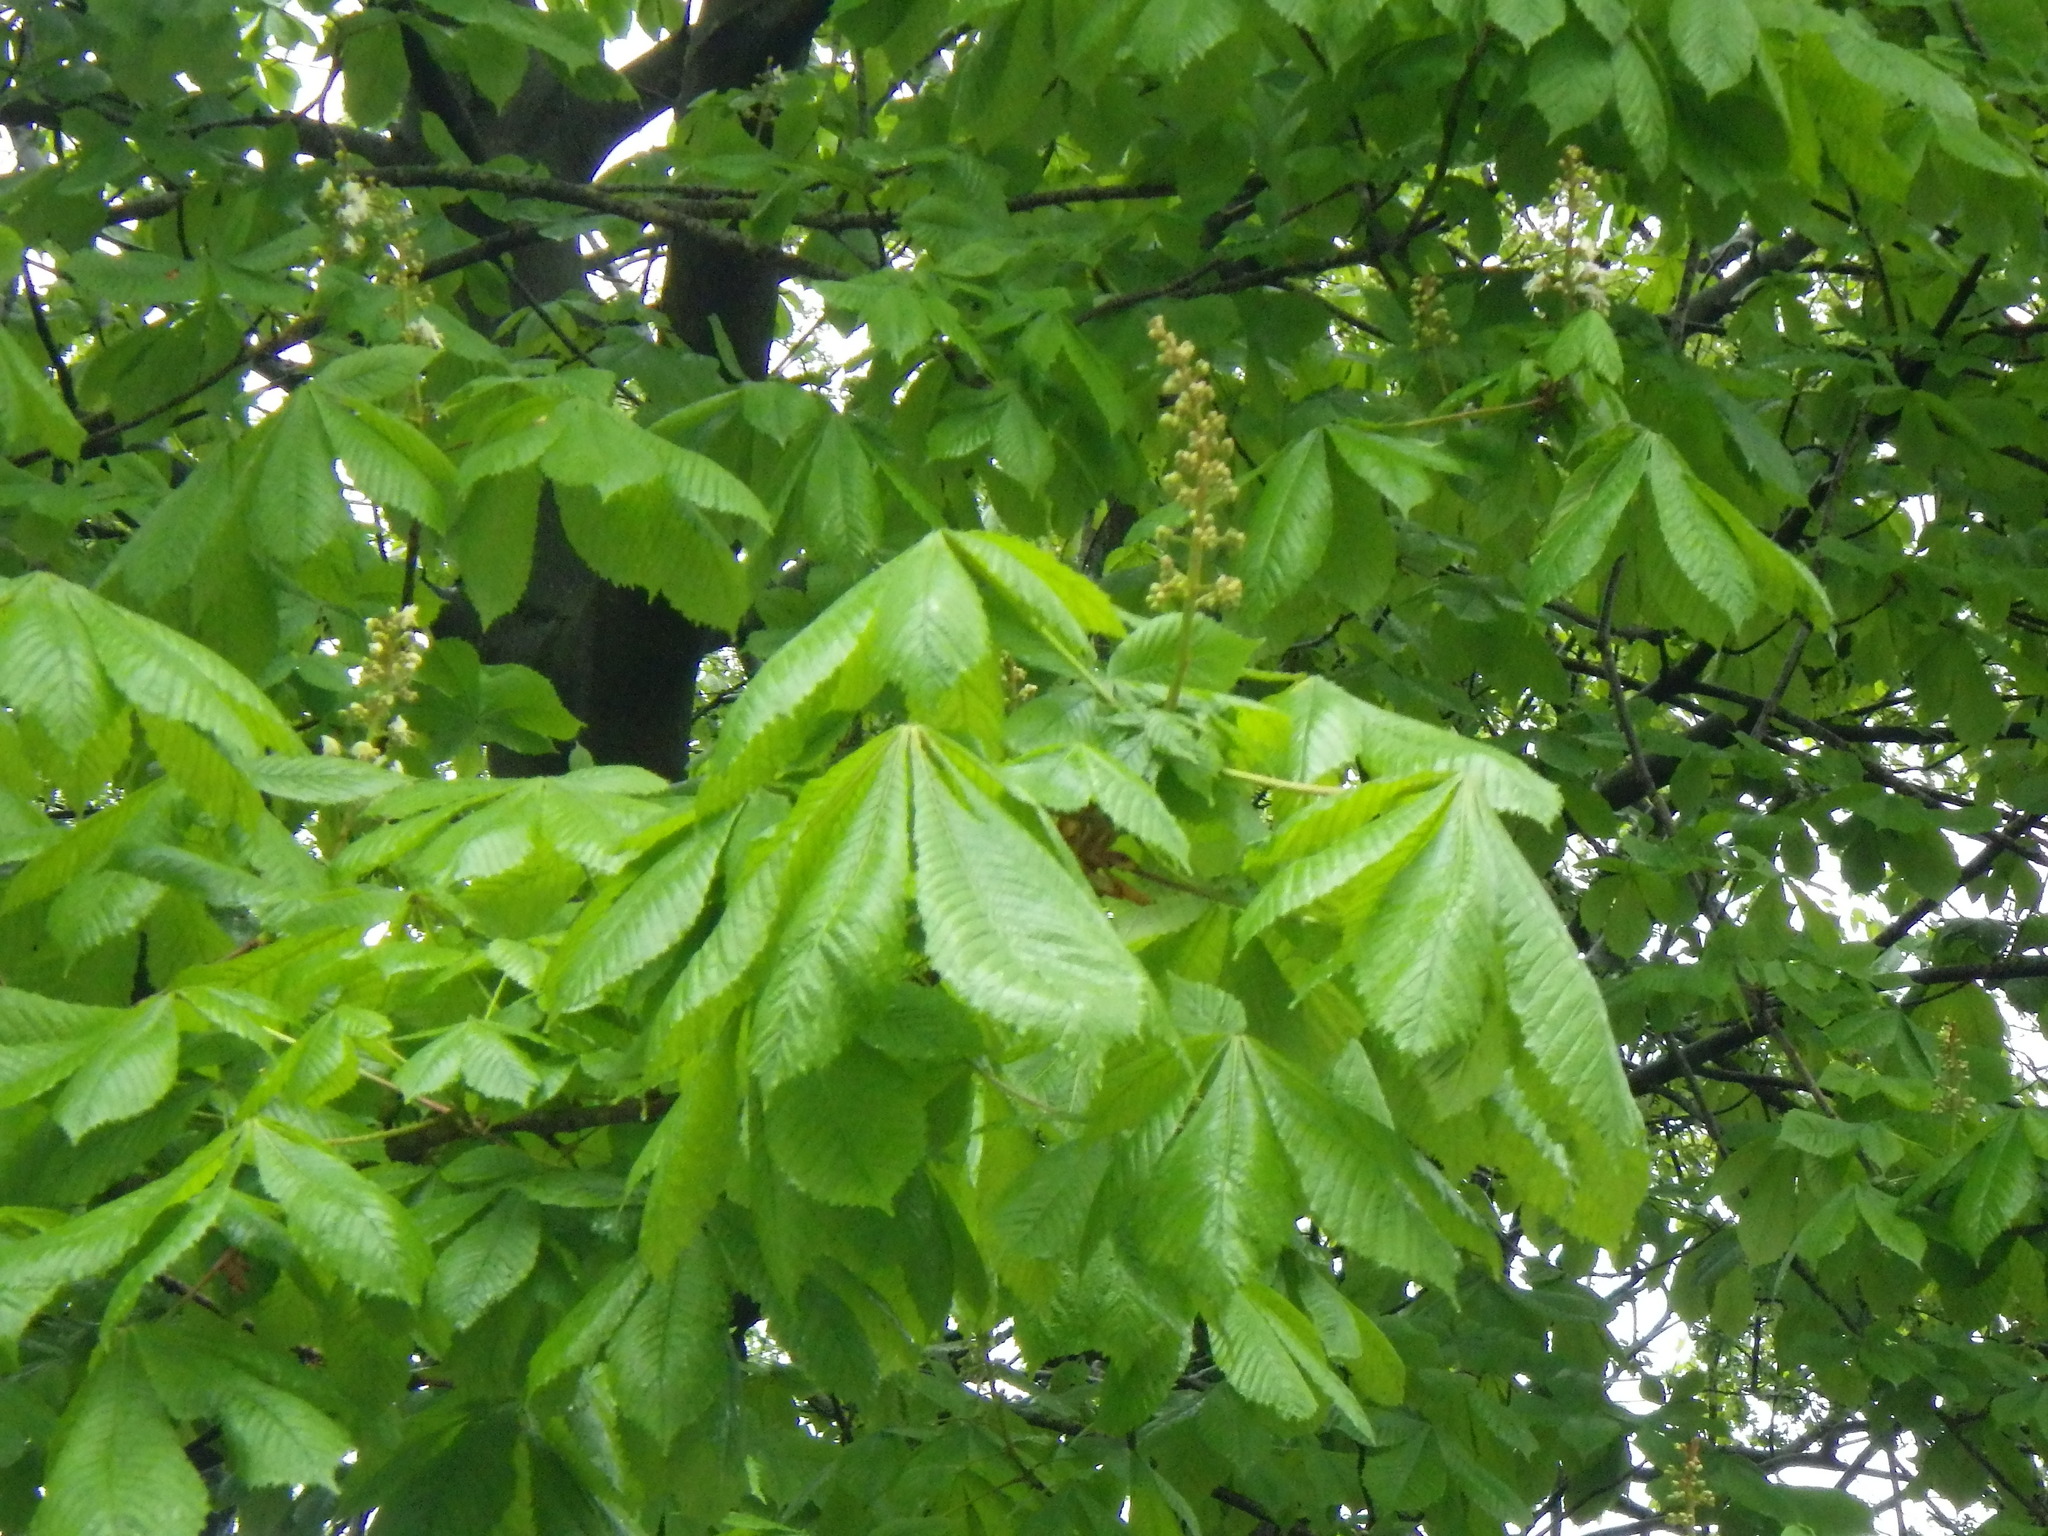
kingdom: Plantae
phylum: Tracheophyta
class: Magnoliopsida
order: Sapindales
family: Sapindaceae
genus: Aesculus
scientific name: Aesculus hippocastanum
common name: Horse-chestnut
